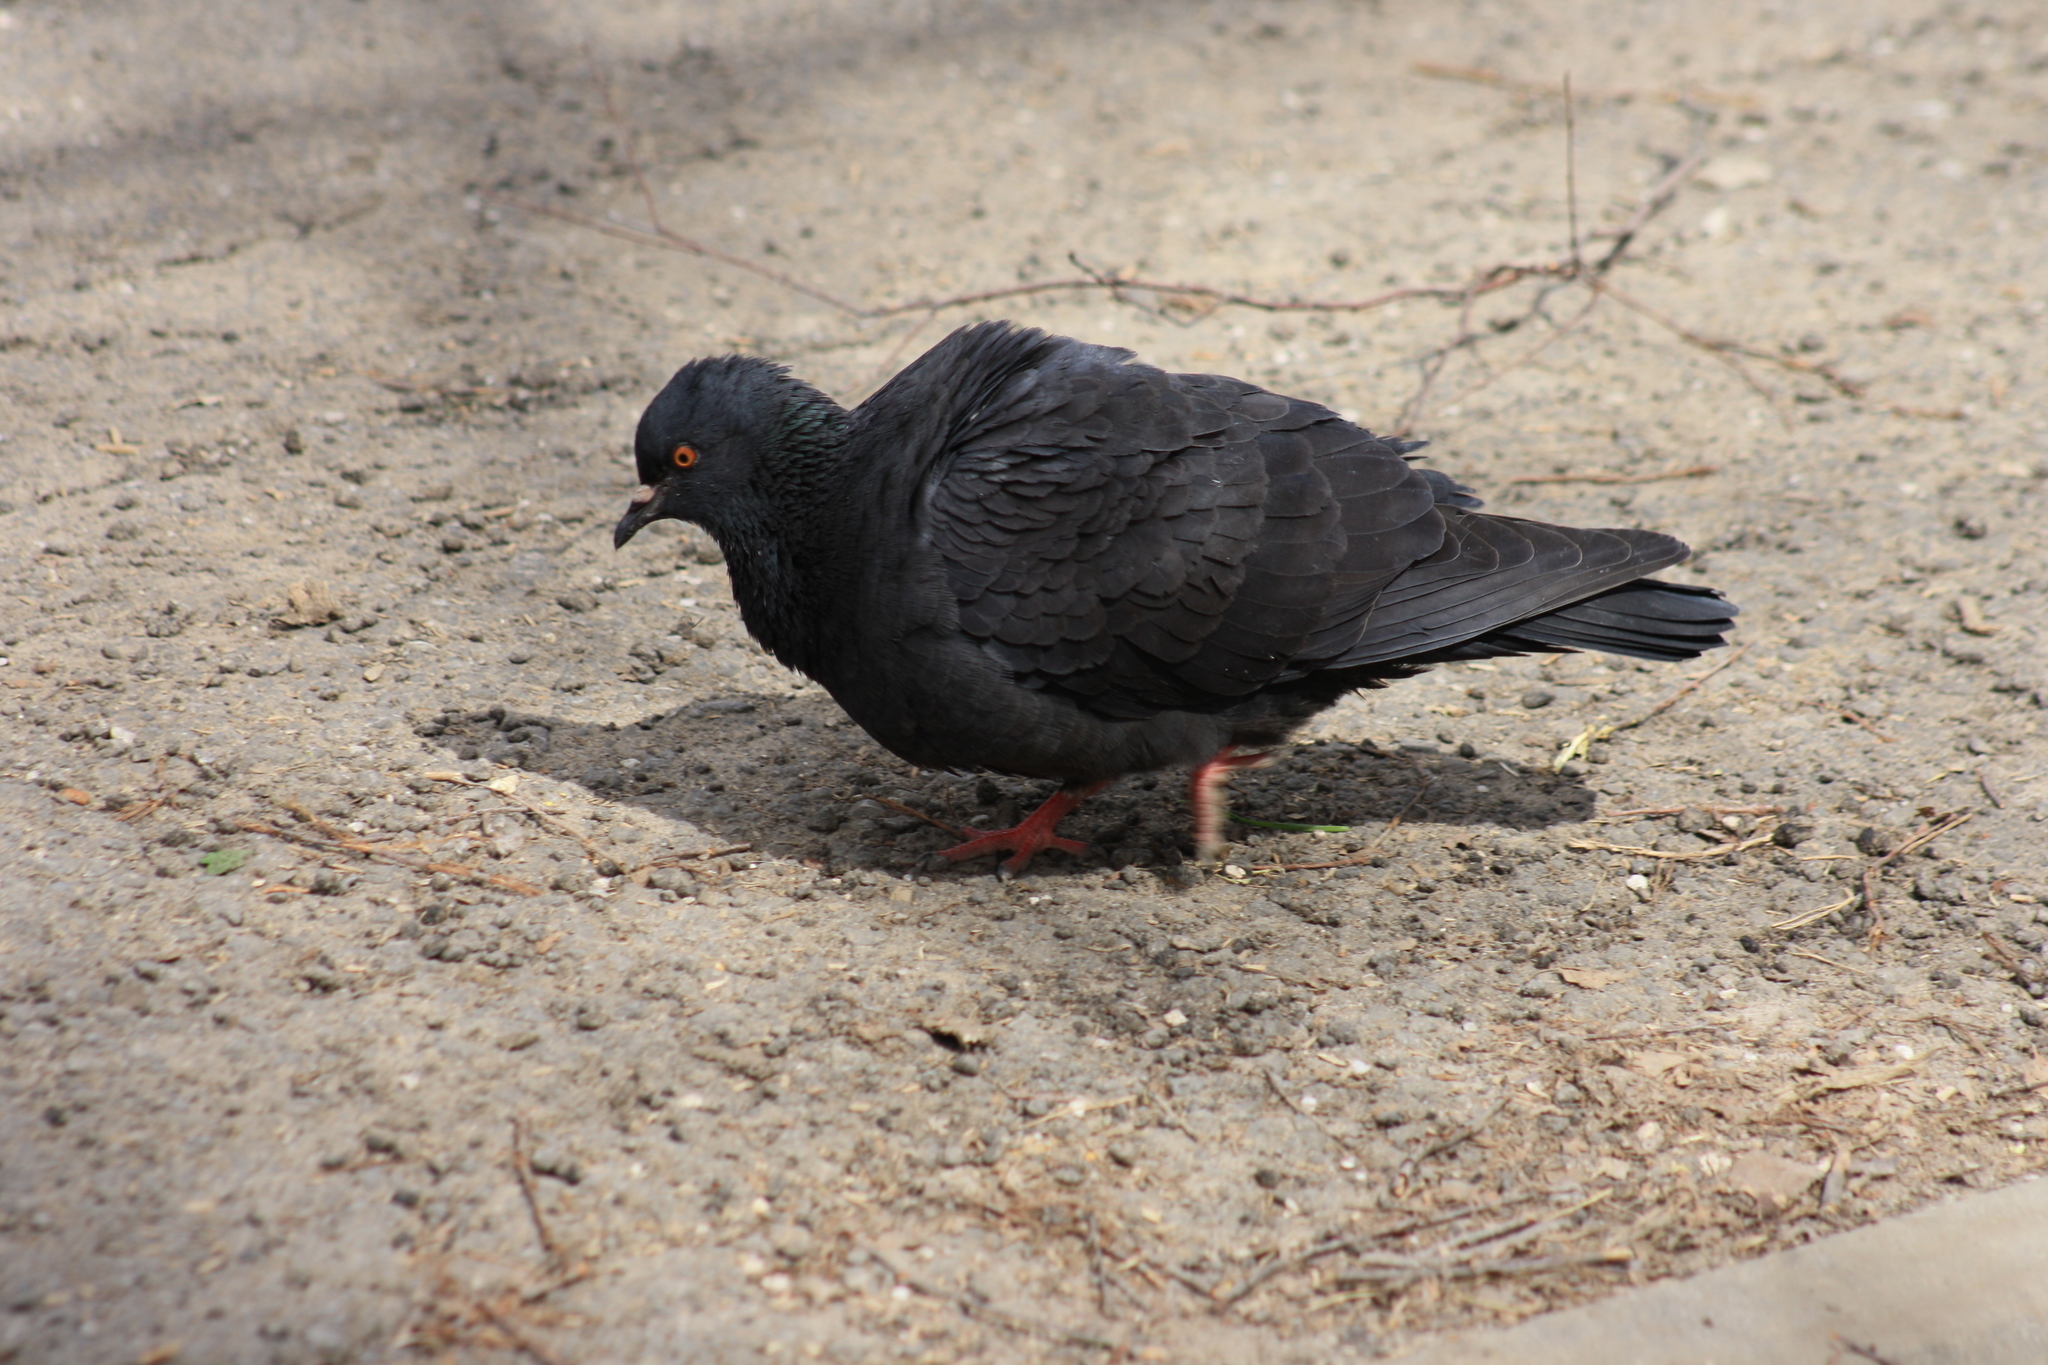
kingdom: Animalia
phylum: Chordata
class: Aves
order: Columbiformes
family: Columbidae
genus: Columba
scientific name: Columba livia
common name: Rock pigeon
